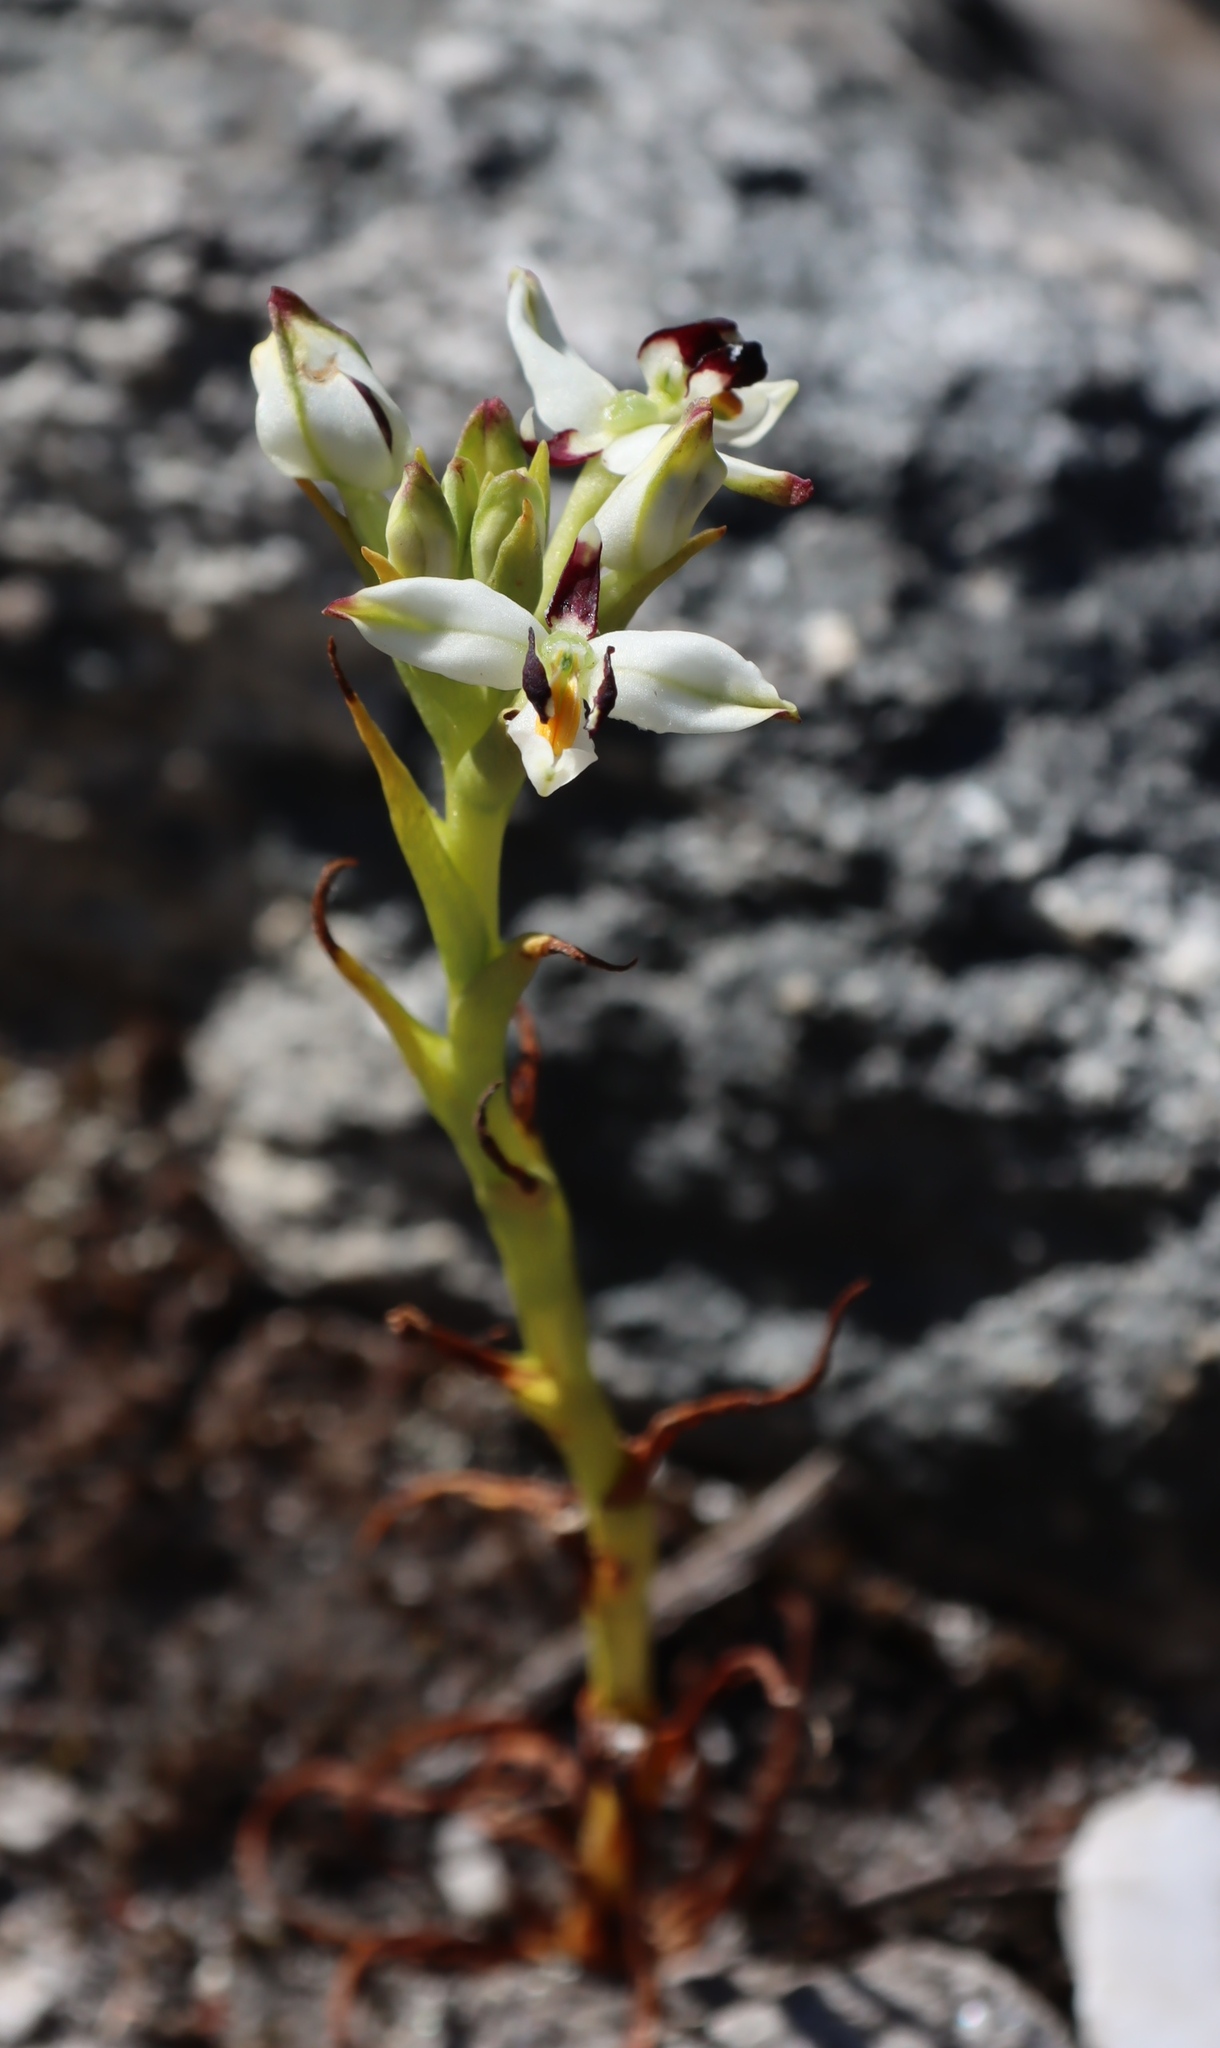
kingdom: Plantae
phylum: Tracheophyta
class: Liliopsida
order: Asparagales
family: Orchidaceae
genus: Disa
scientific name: Disa bivalvata
